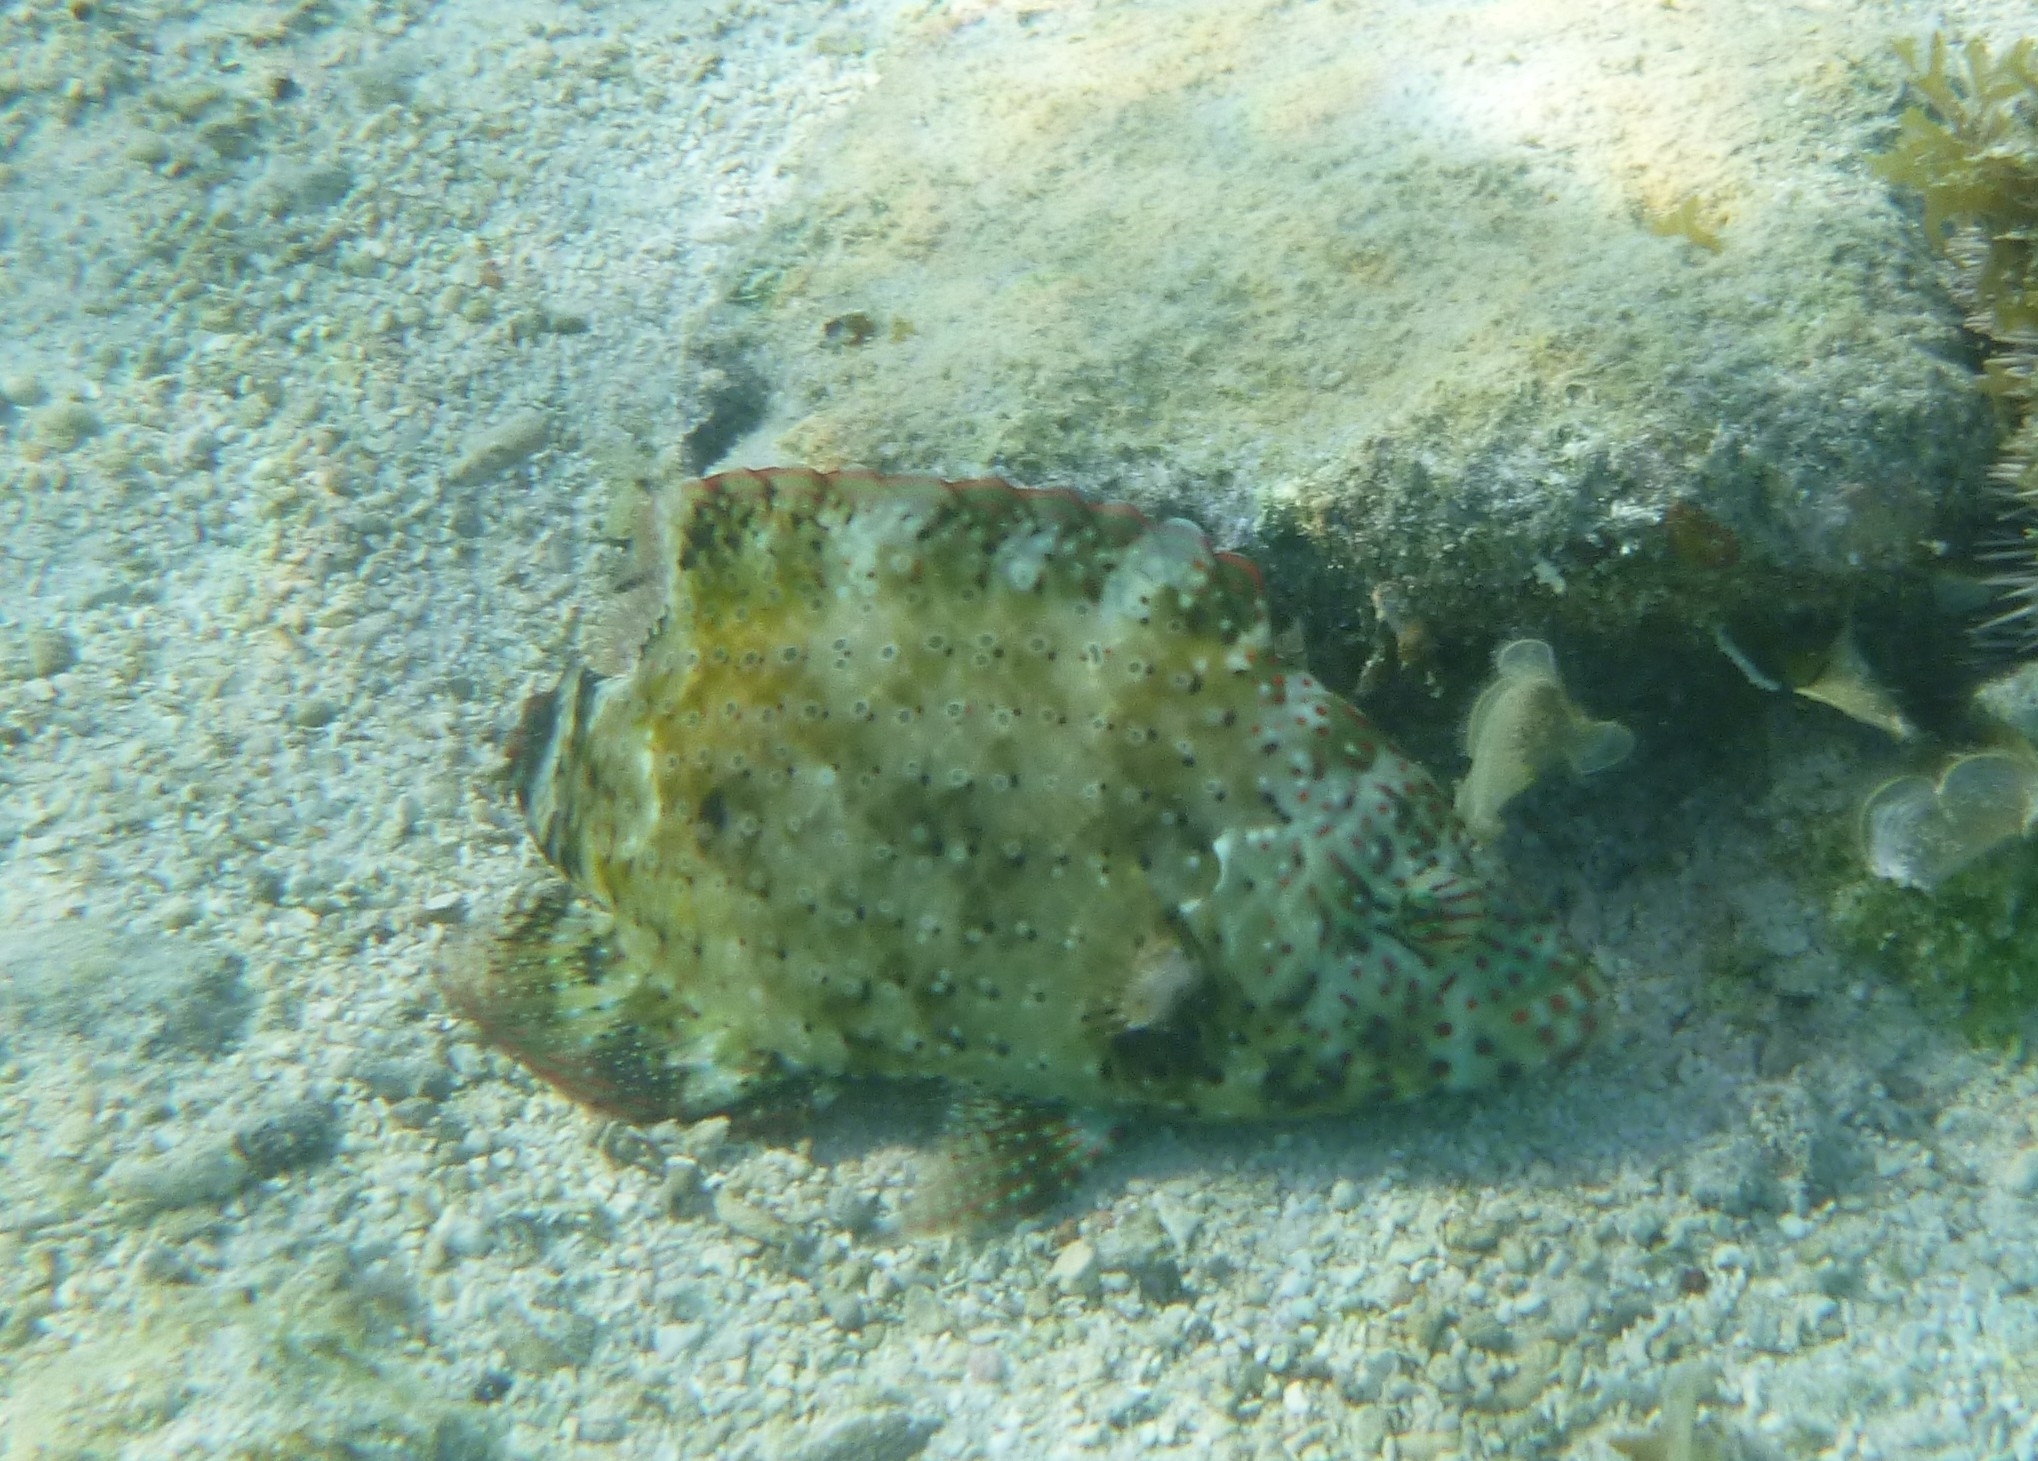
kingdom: Animalia
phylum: Chordata
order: Perciformes
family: Labridae
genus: Cheilinus
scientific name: Cheilinus chlorourus
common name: Floral wrasse
